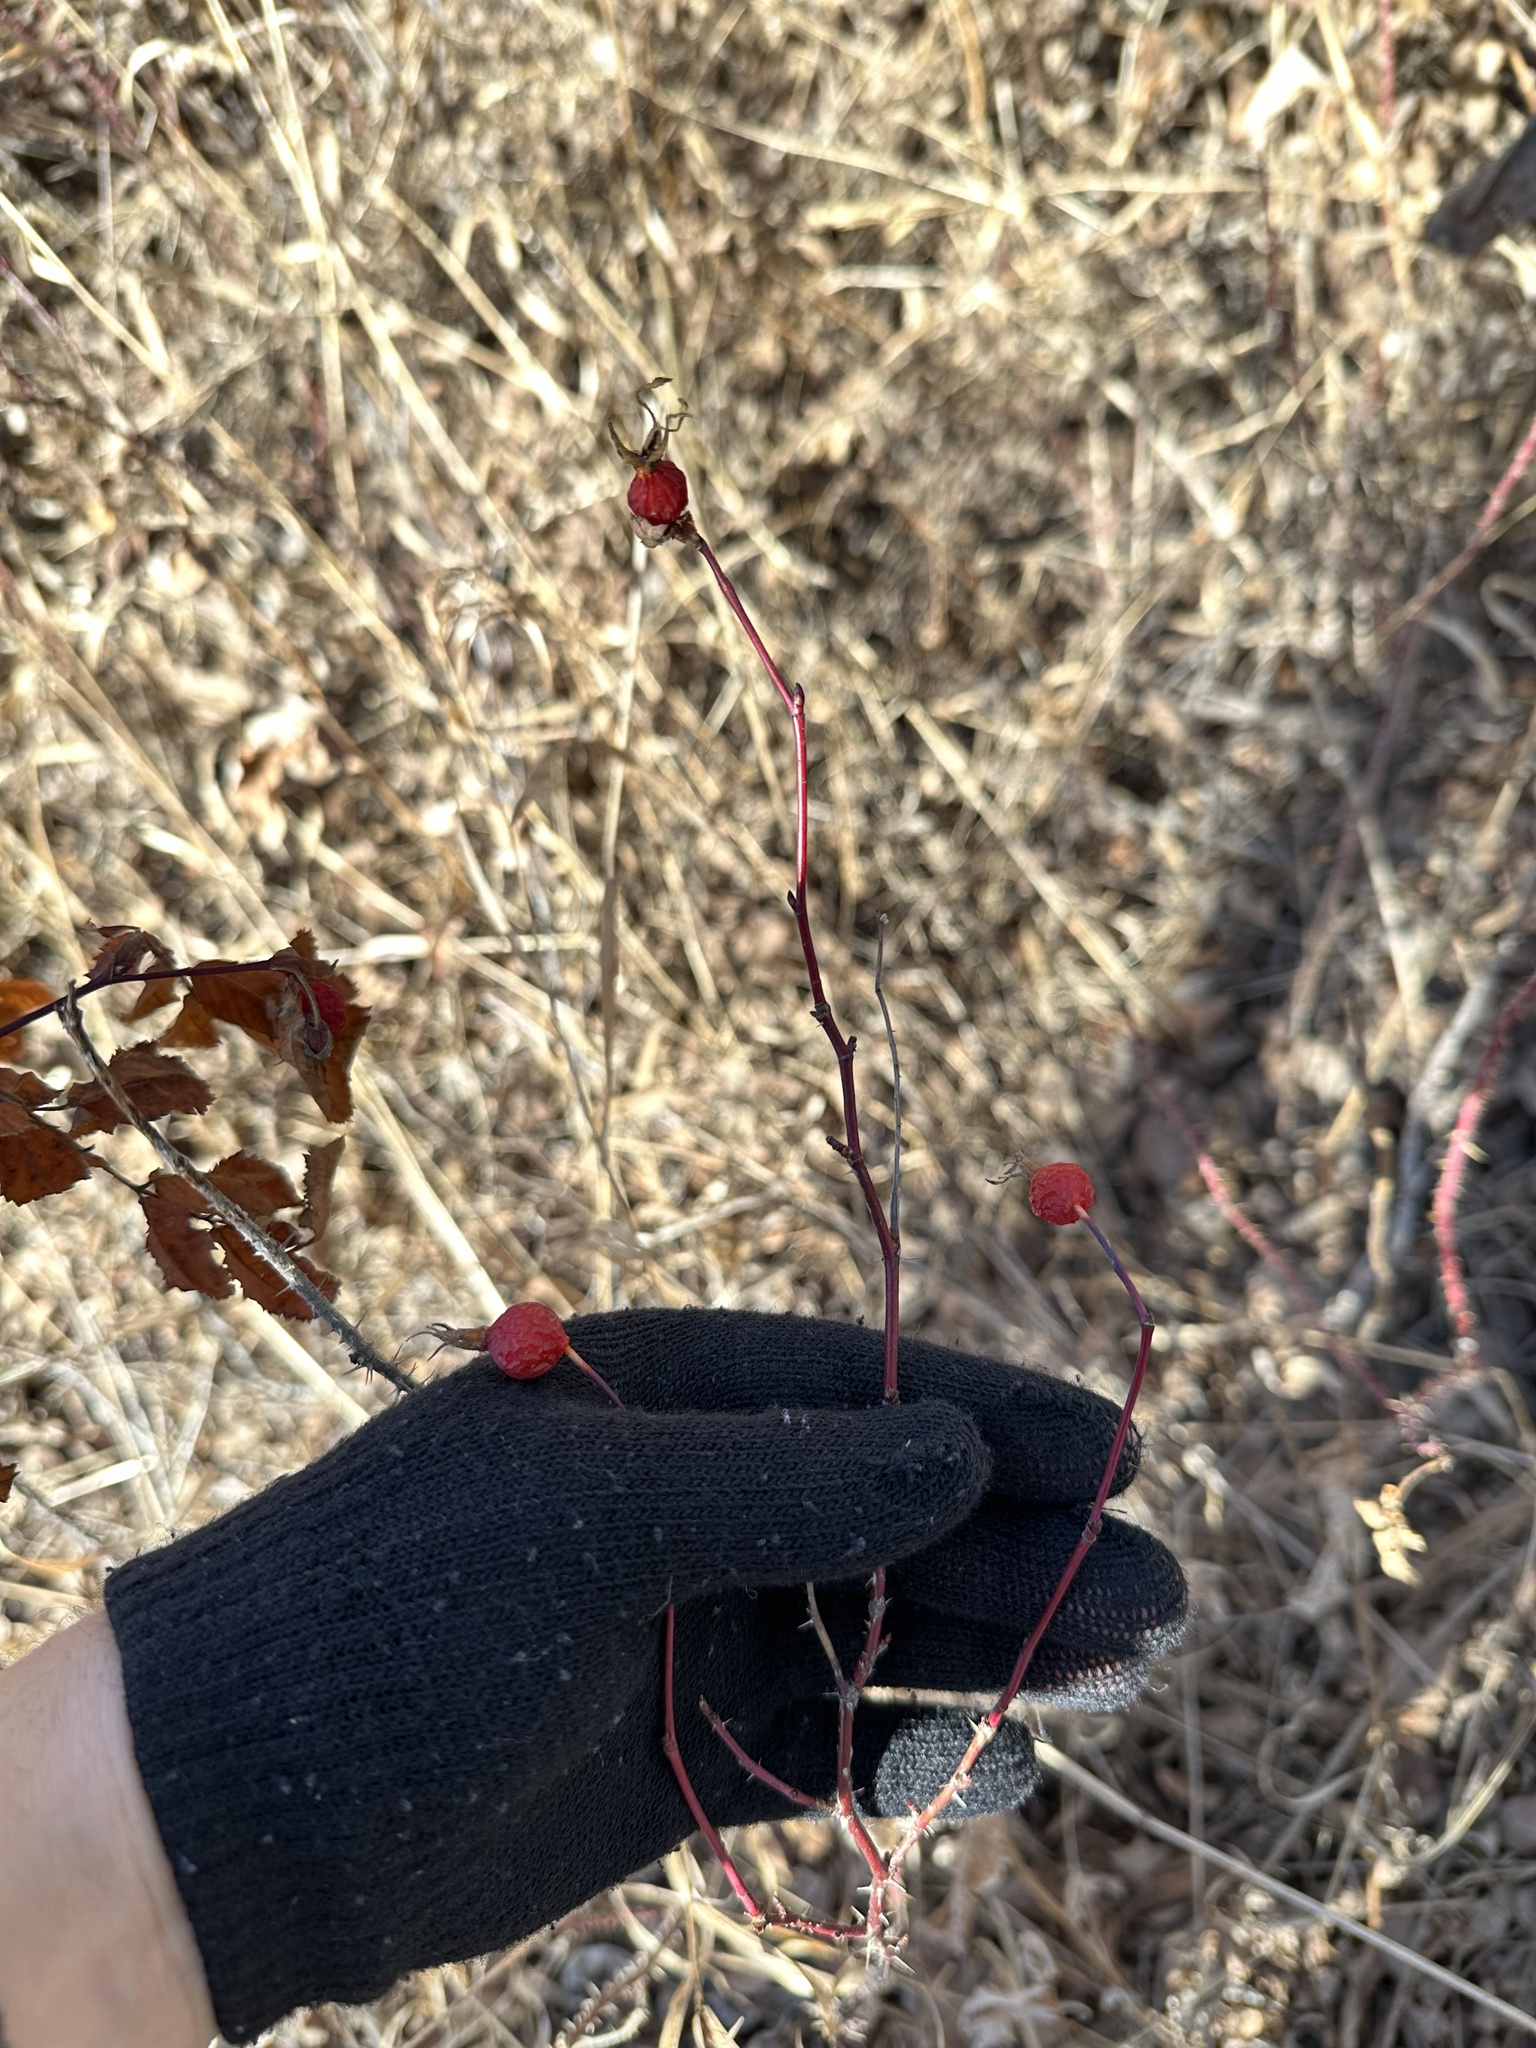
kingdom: Plantae
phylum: Tracheophyta
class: Magnoliopsida
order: Rosales
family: Rosaceae
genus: Rosa
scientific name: Rosa woodsii
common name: Woods's rose
